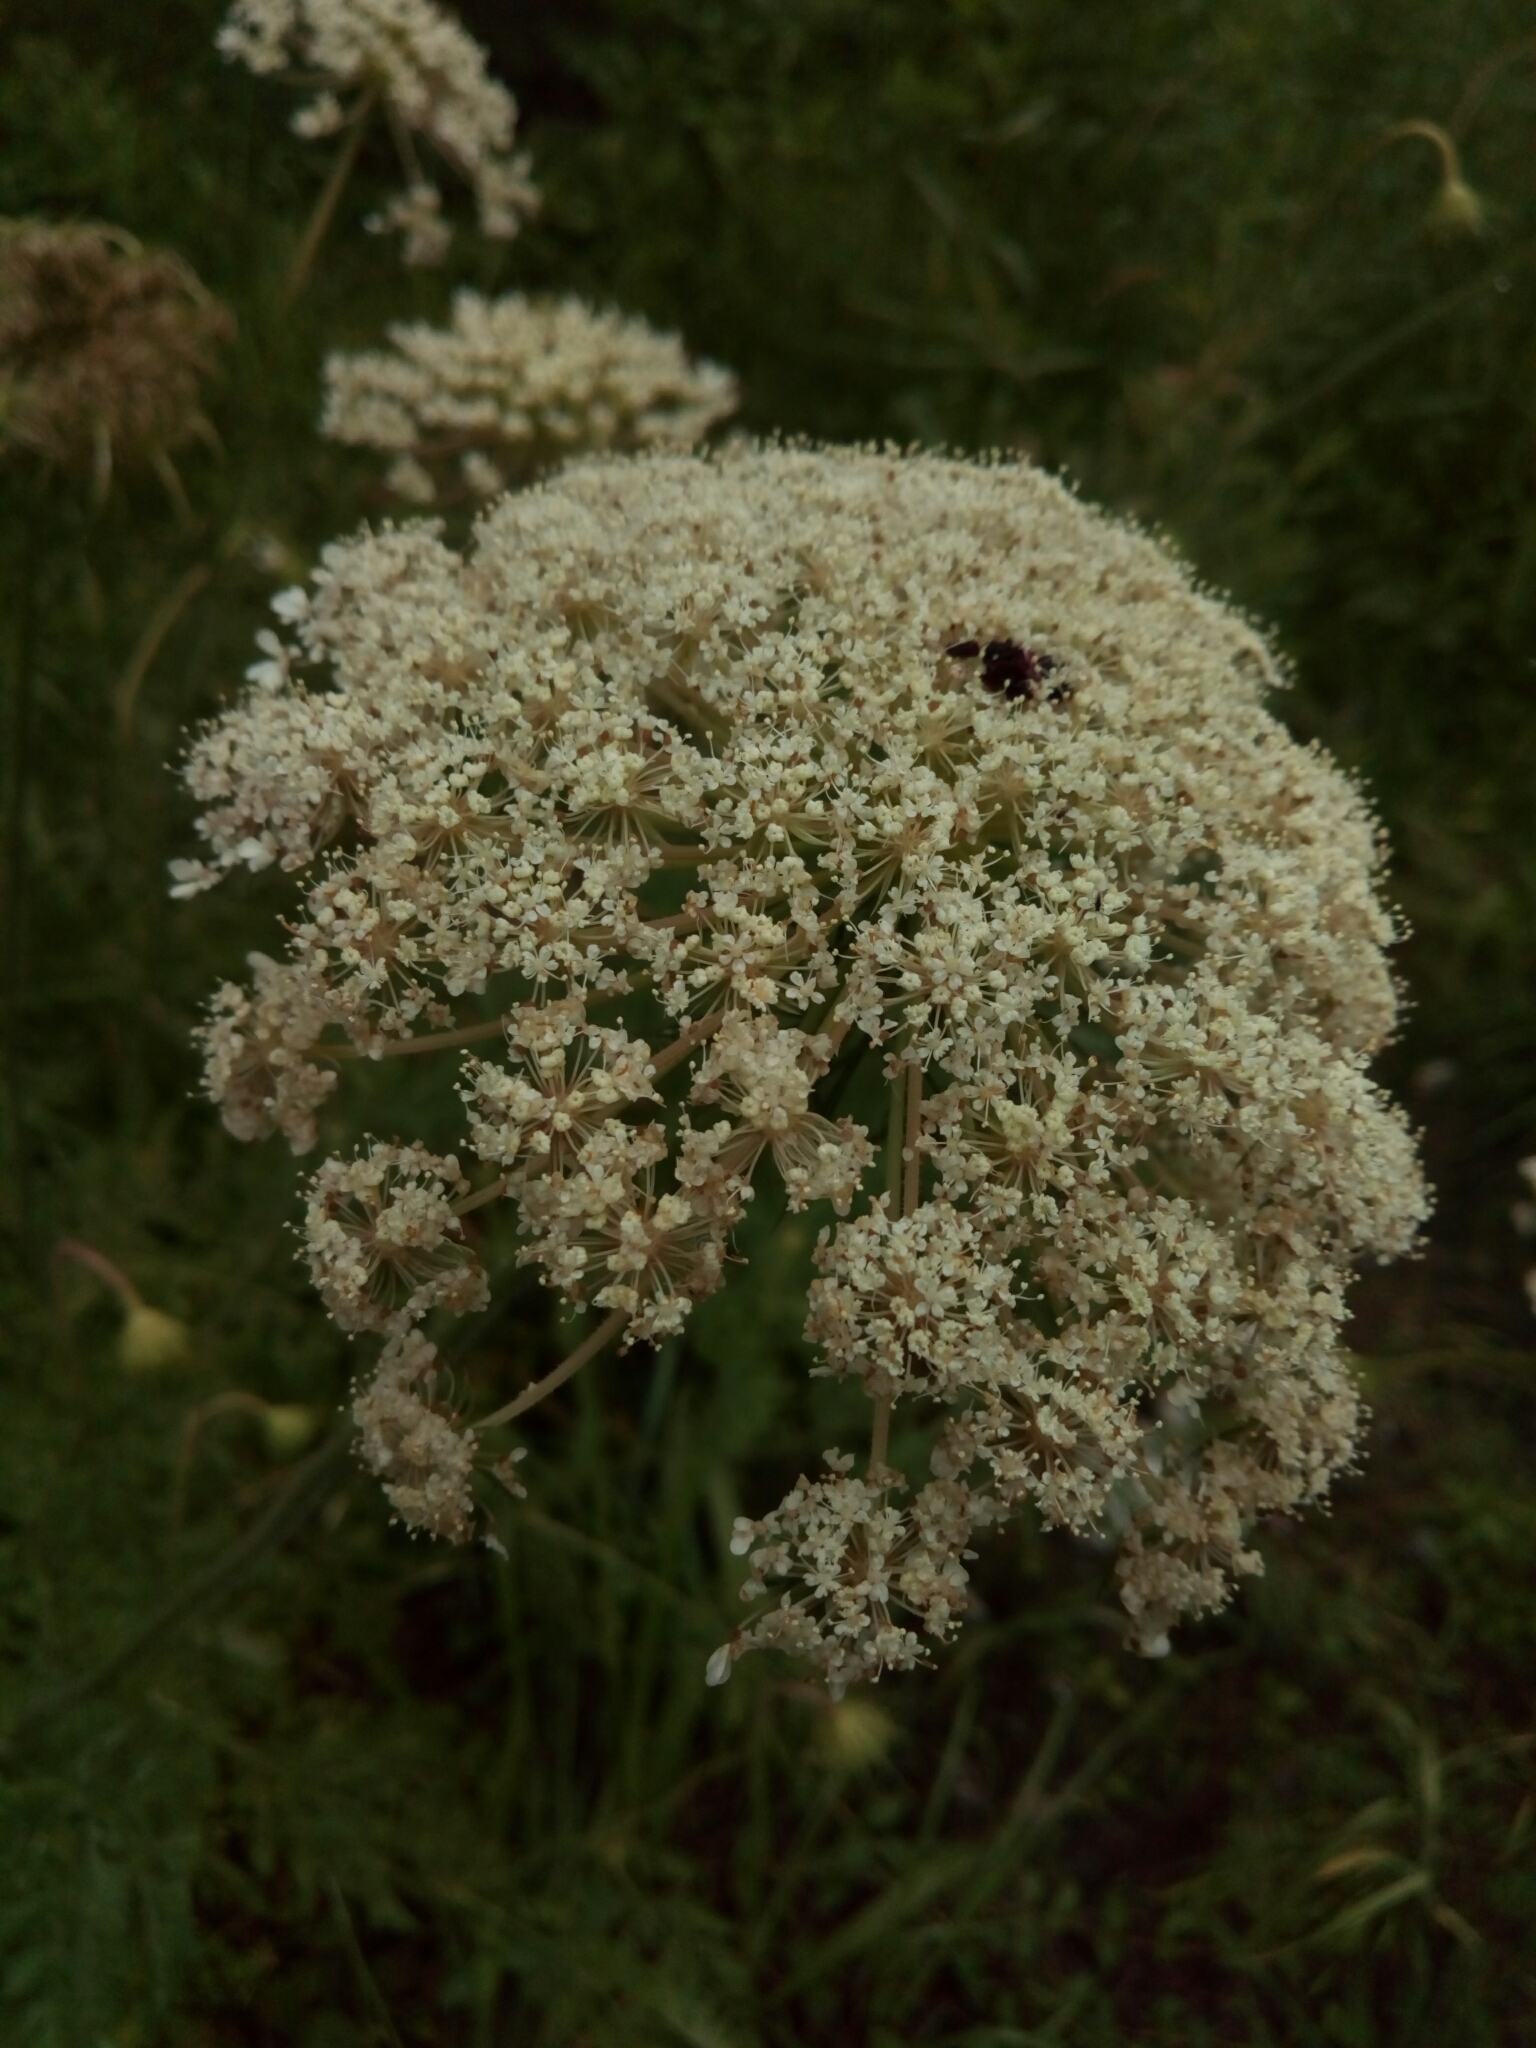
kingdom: Plantae
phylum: Tracheophyta
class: Magnoliopsida
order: Apiales
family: Apiaceae
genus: Daucus
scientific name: Daucus carota
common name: Wild carrot
